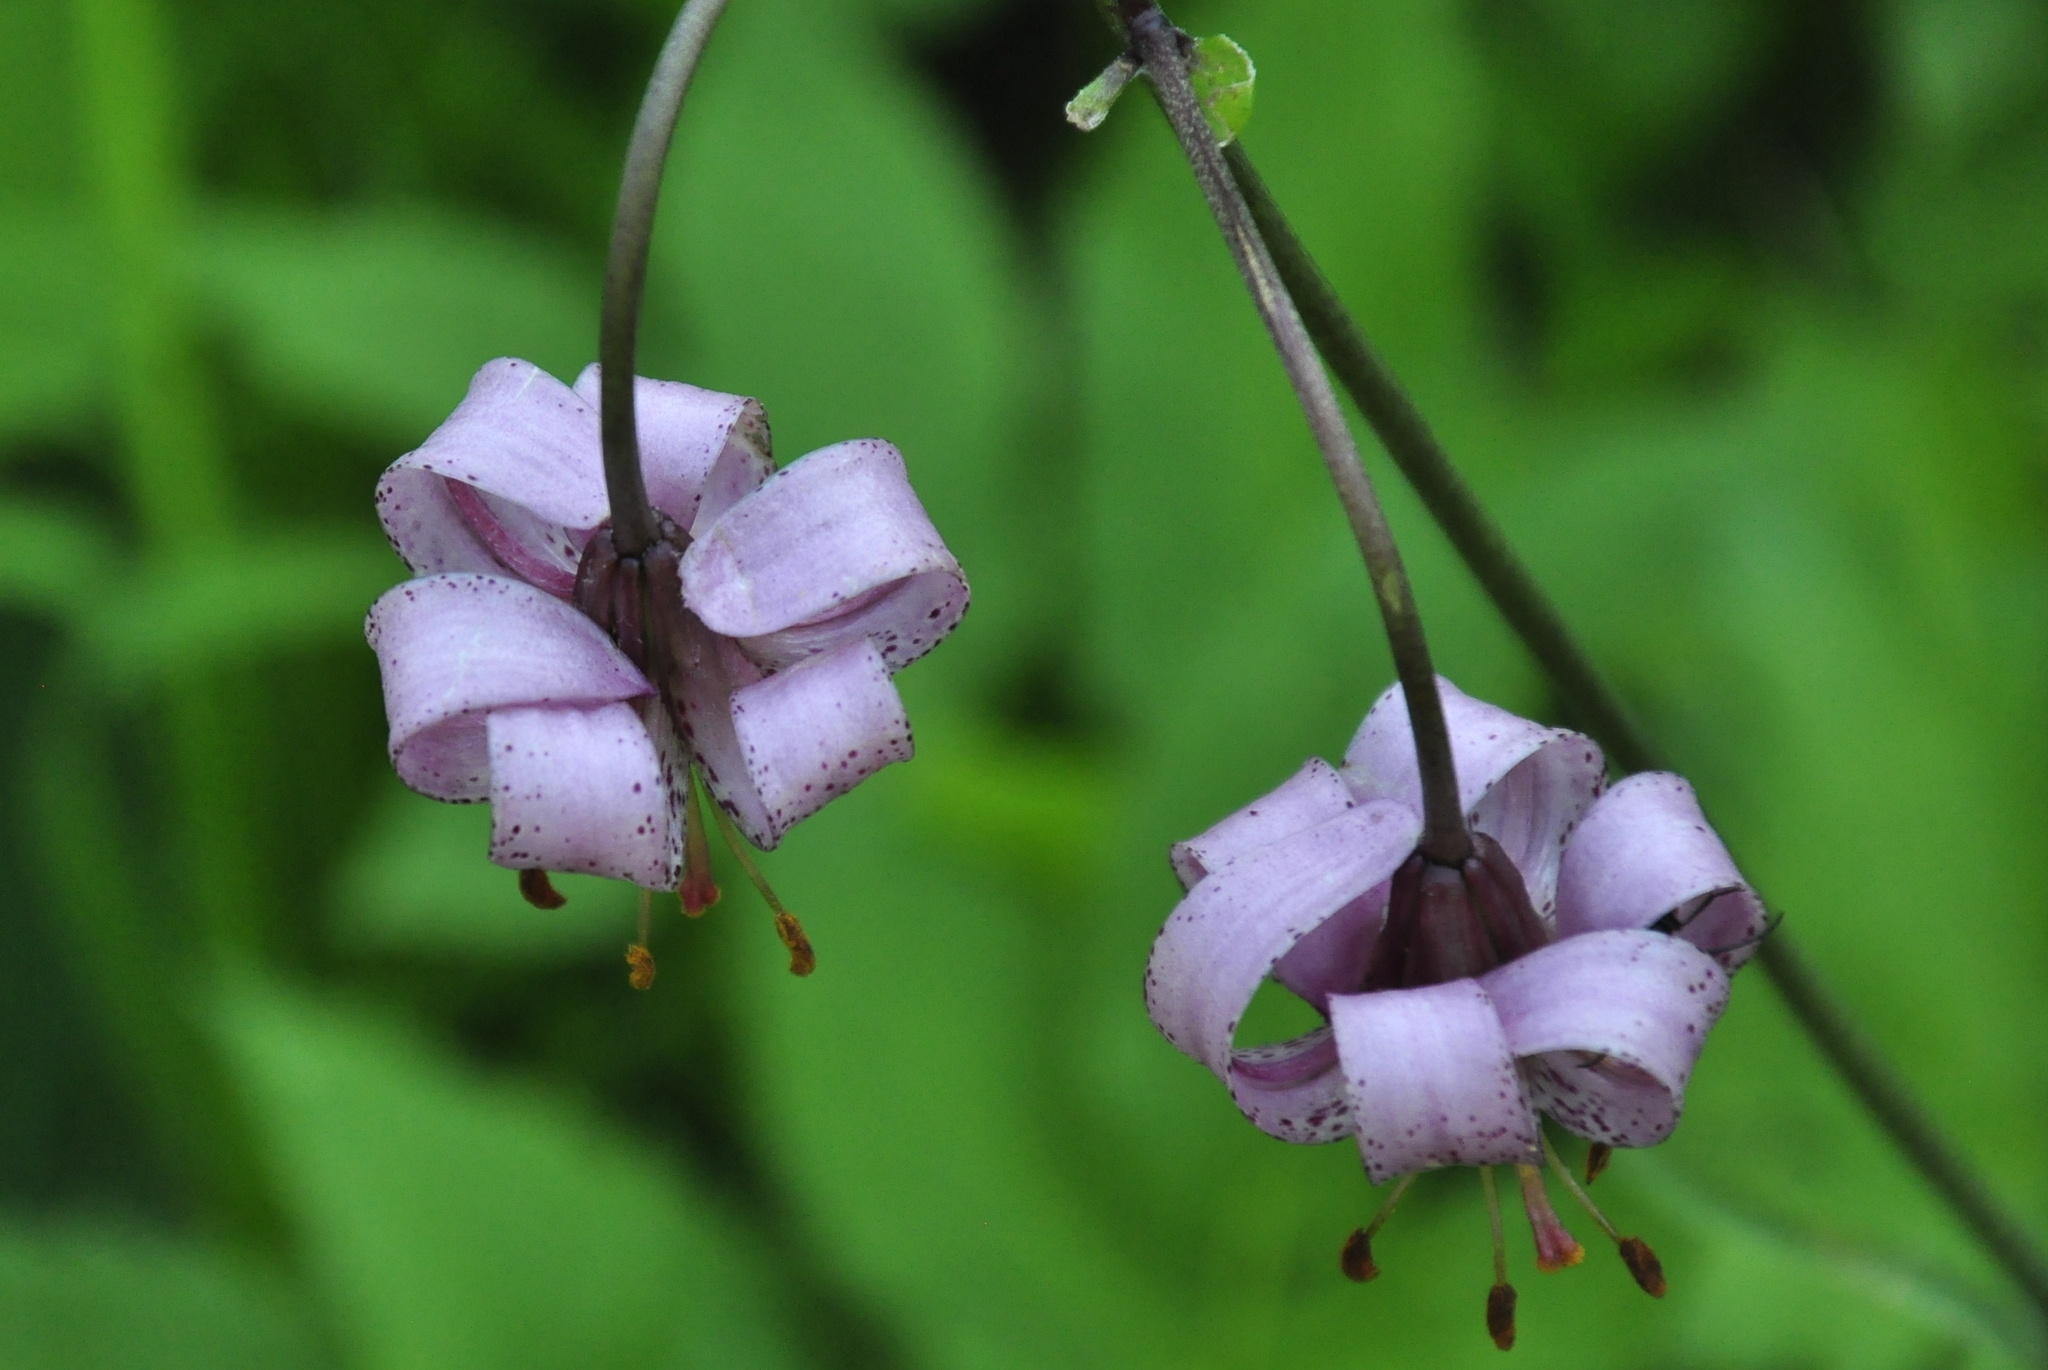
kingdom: Plantae
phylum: Tracheophyta
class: Liliopsida
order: Liliales
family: Liliaceae
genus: Lilium
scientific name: Lilium martagon
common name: Martagon lily
